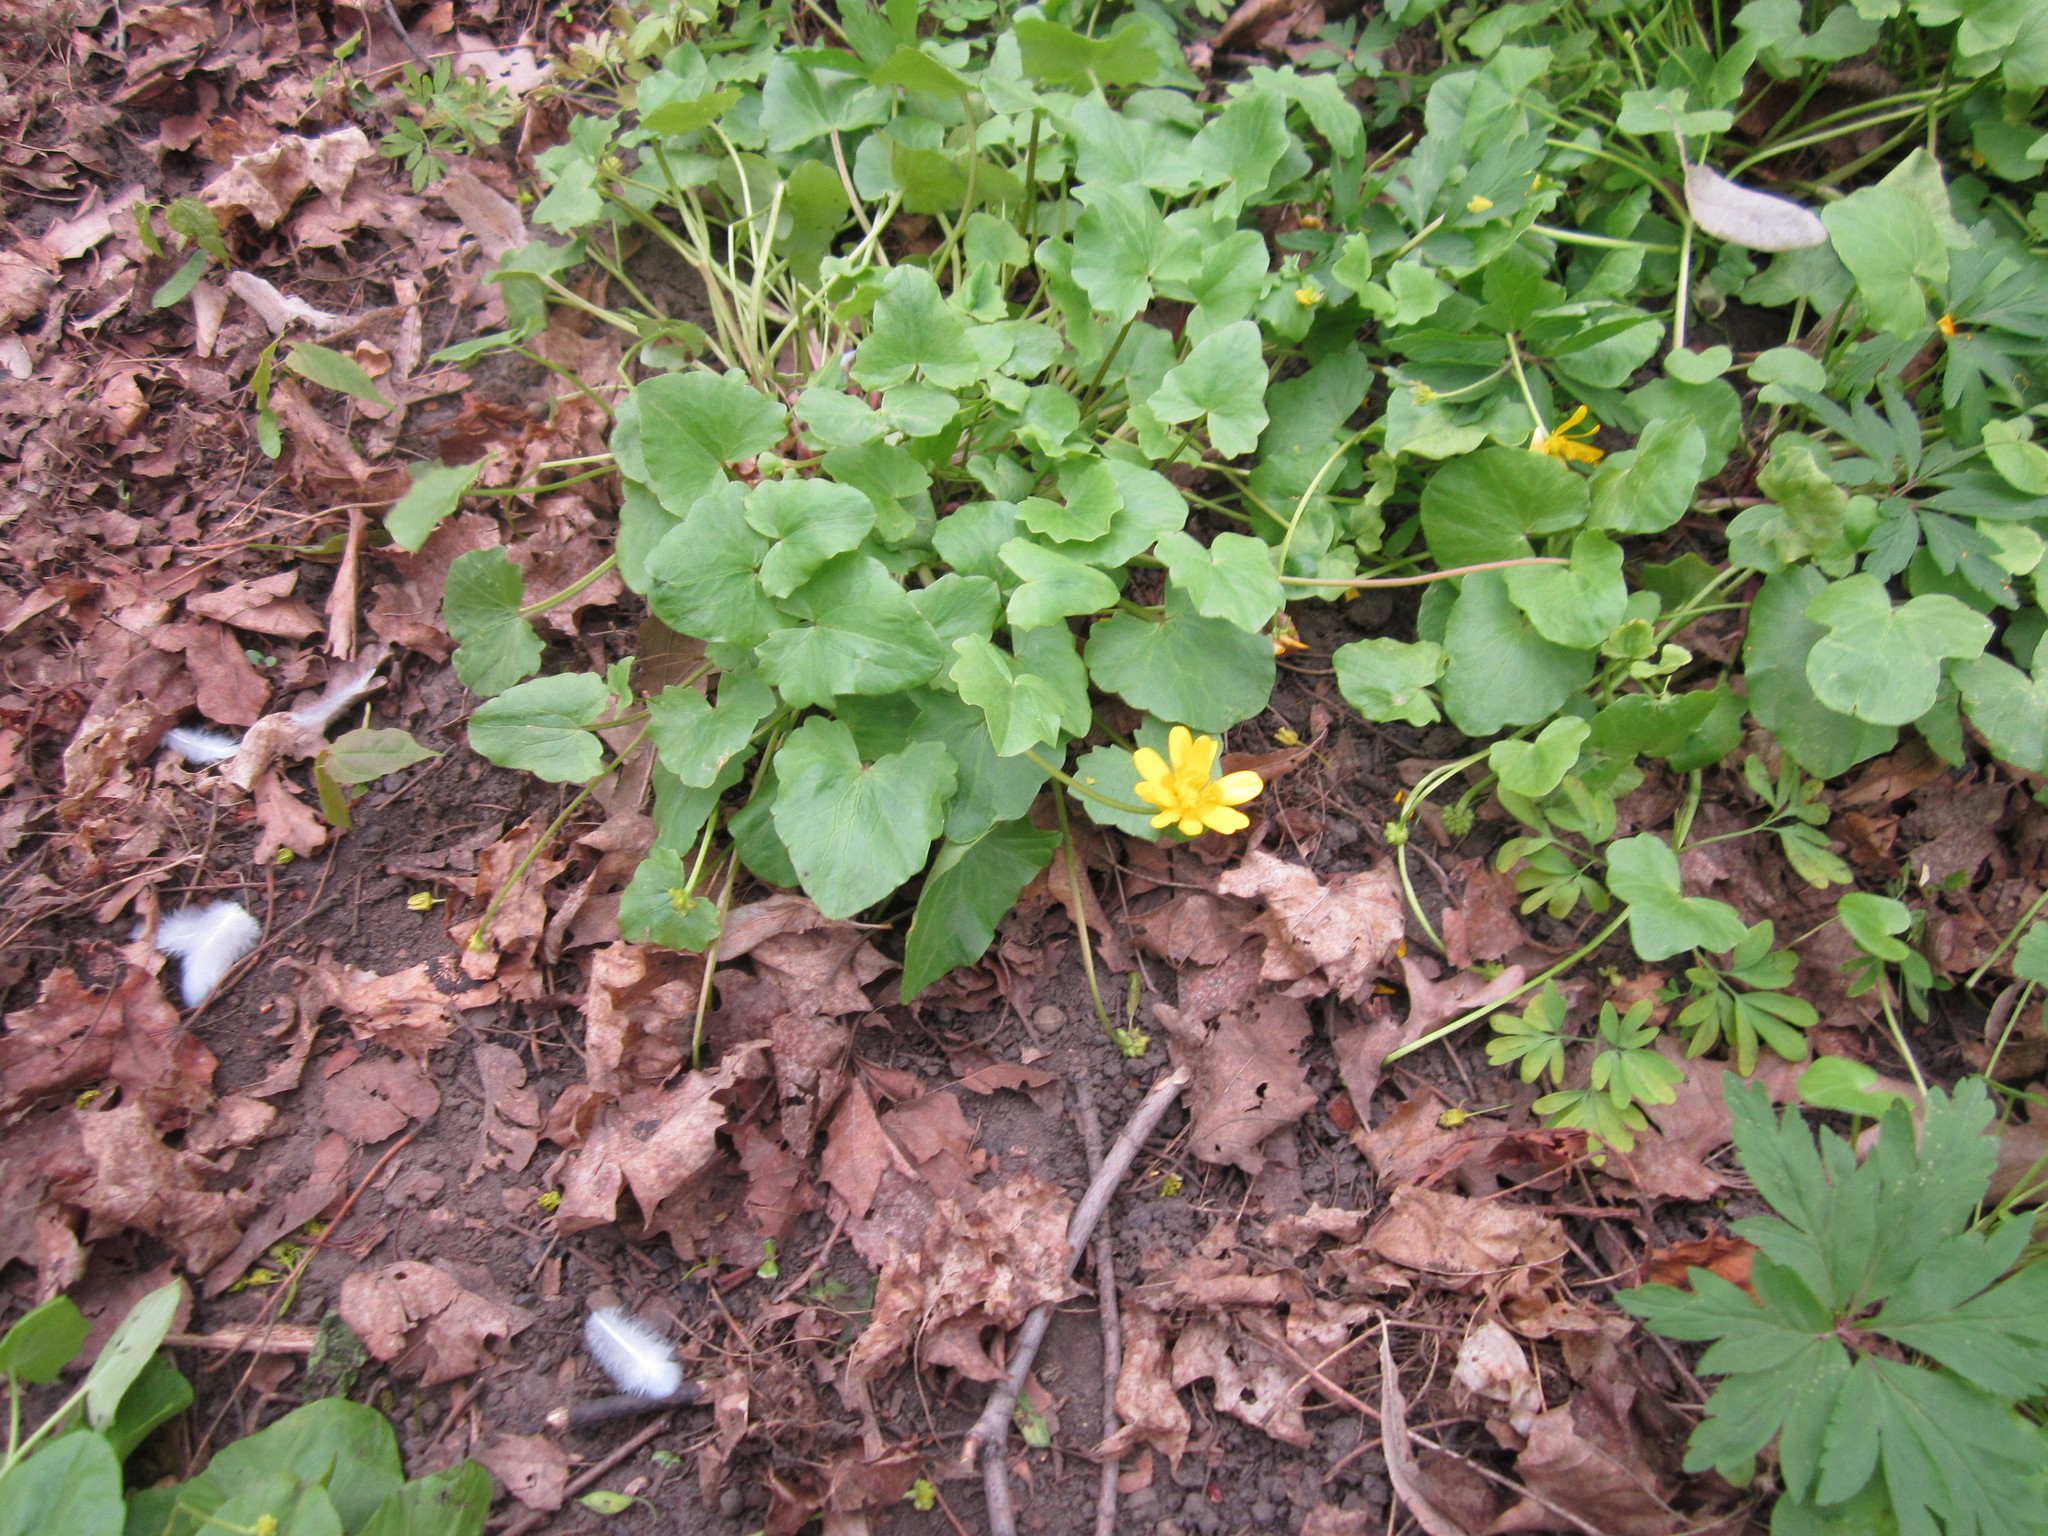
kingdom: Plantae
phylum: Tracheophyta
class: Magnoliopsida
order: Ranunculales
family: Ranunculaceae
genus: Ficaria
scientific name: Ficaria verna
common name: Lesser celandine
